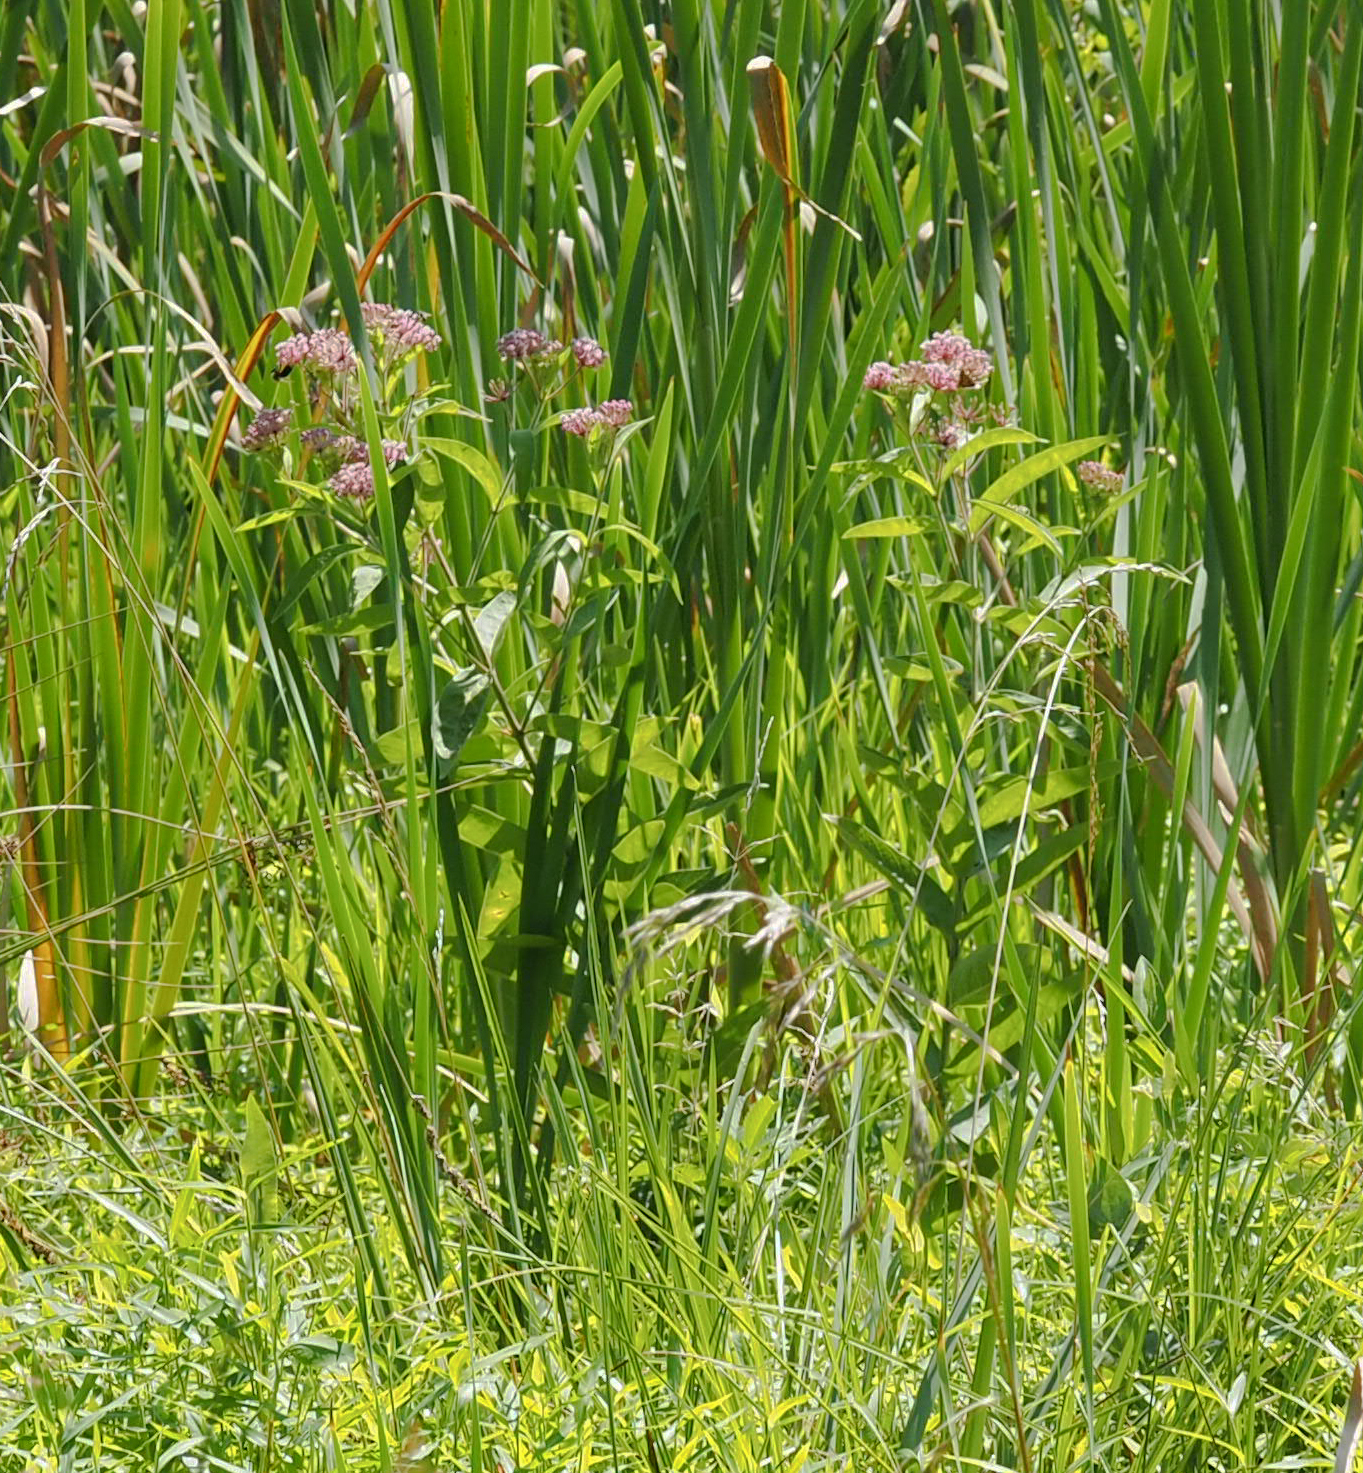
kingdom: Plantae
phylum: Tracheophyta
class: Magnoliopsida
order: Gentianales
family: Apocynaceae
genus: Asclepias
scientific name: Asclepias incarnata
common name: Swamp milkweed
